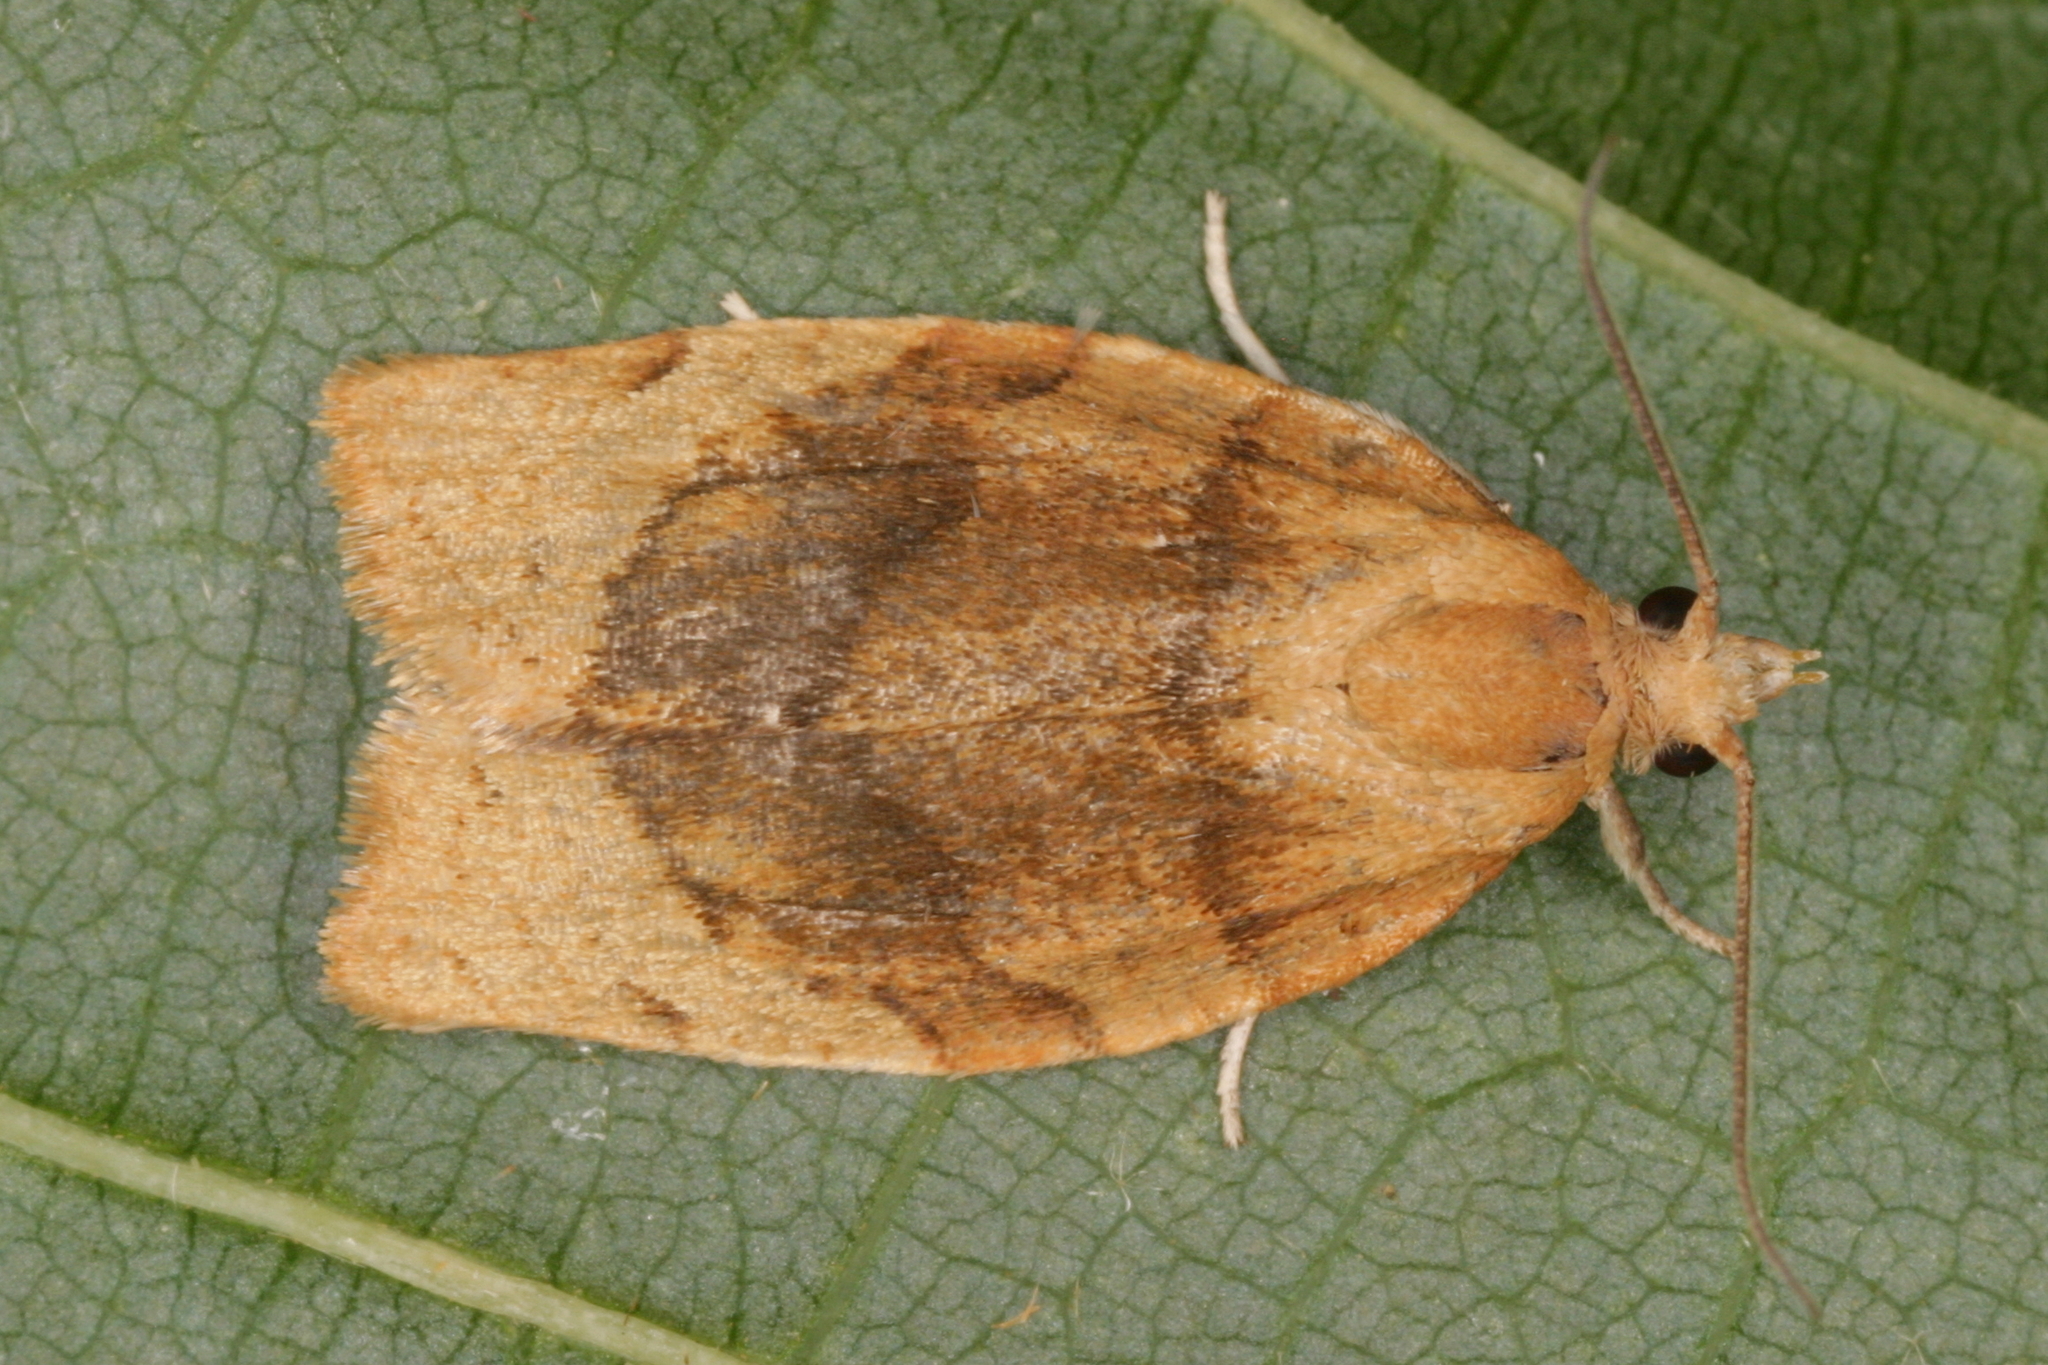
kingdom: Animalia
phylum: Arthropoda
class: Insecta
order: Lepidoptera
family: Tortricidae
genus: Pandemis
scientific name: Pandemis cerasana
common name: Barred fruit-tree tortrix
